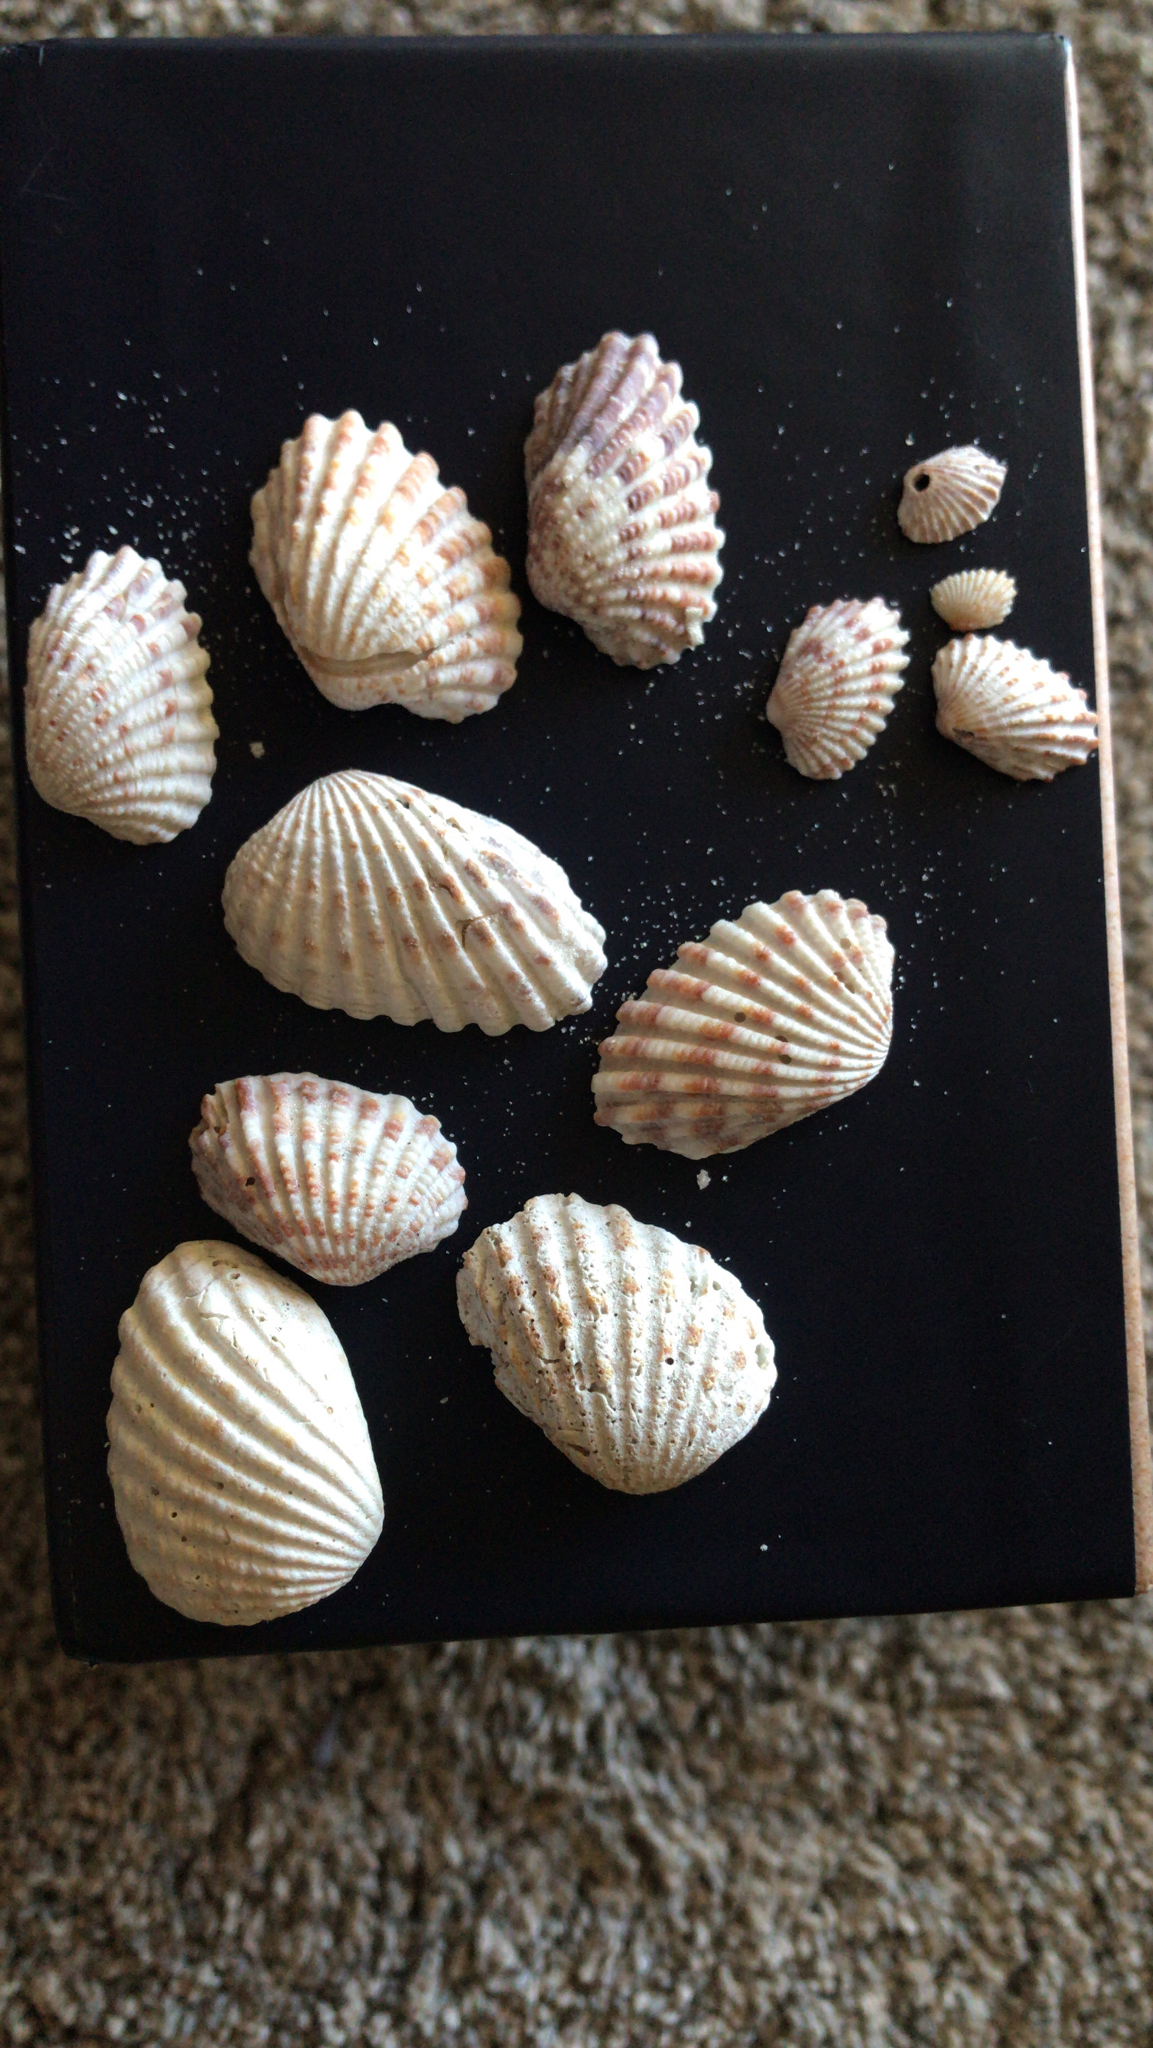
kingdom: Animalia
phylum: Mollusca
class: Bivalvia
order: Carditida
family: Carditidae
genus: Cardites
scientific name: Cardites floridanus
